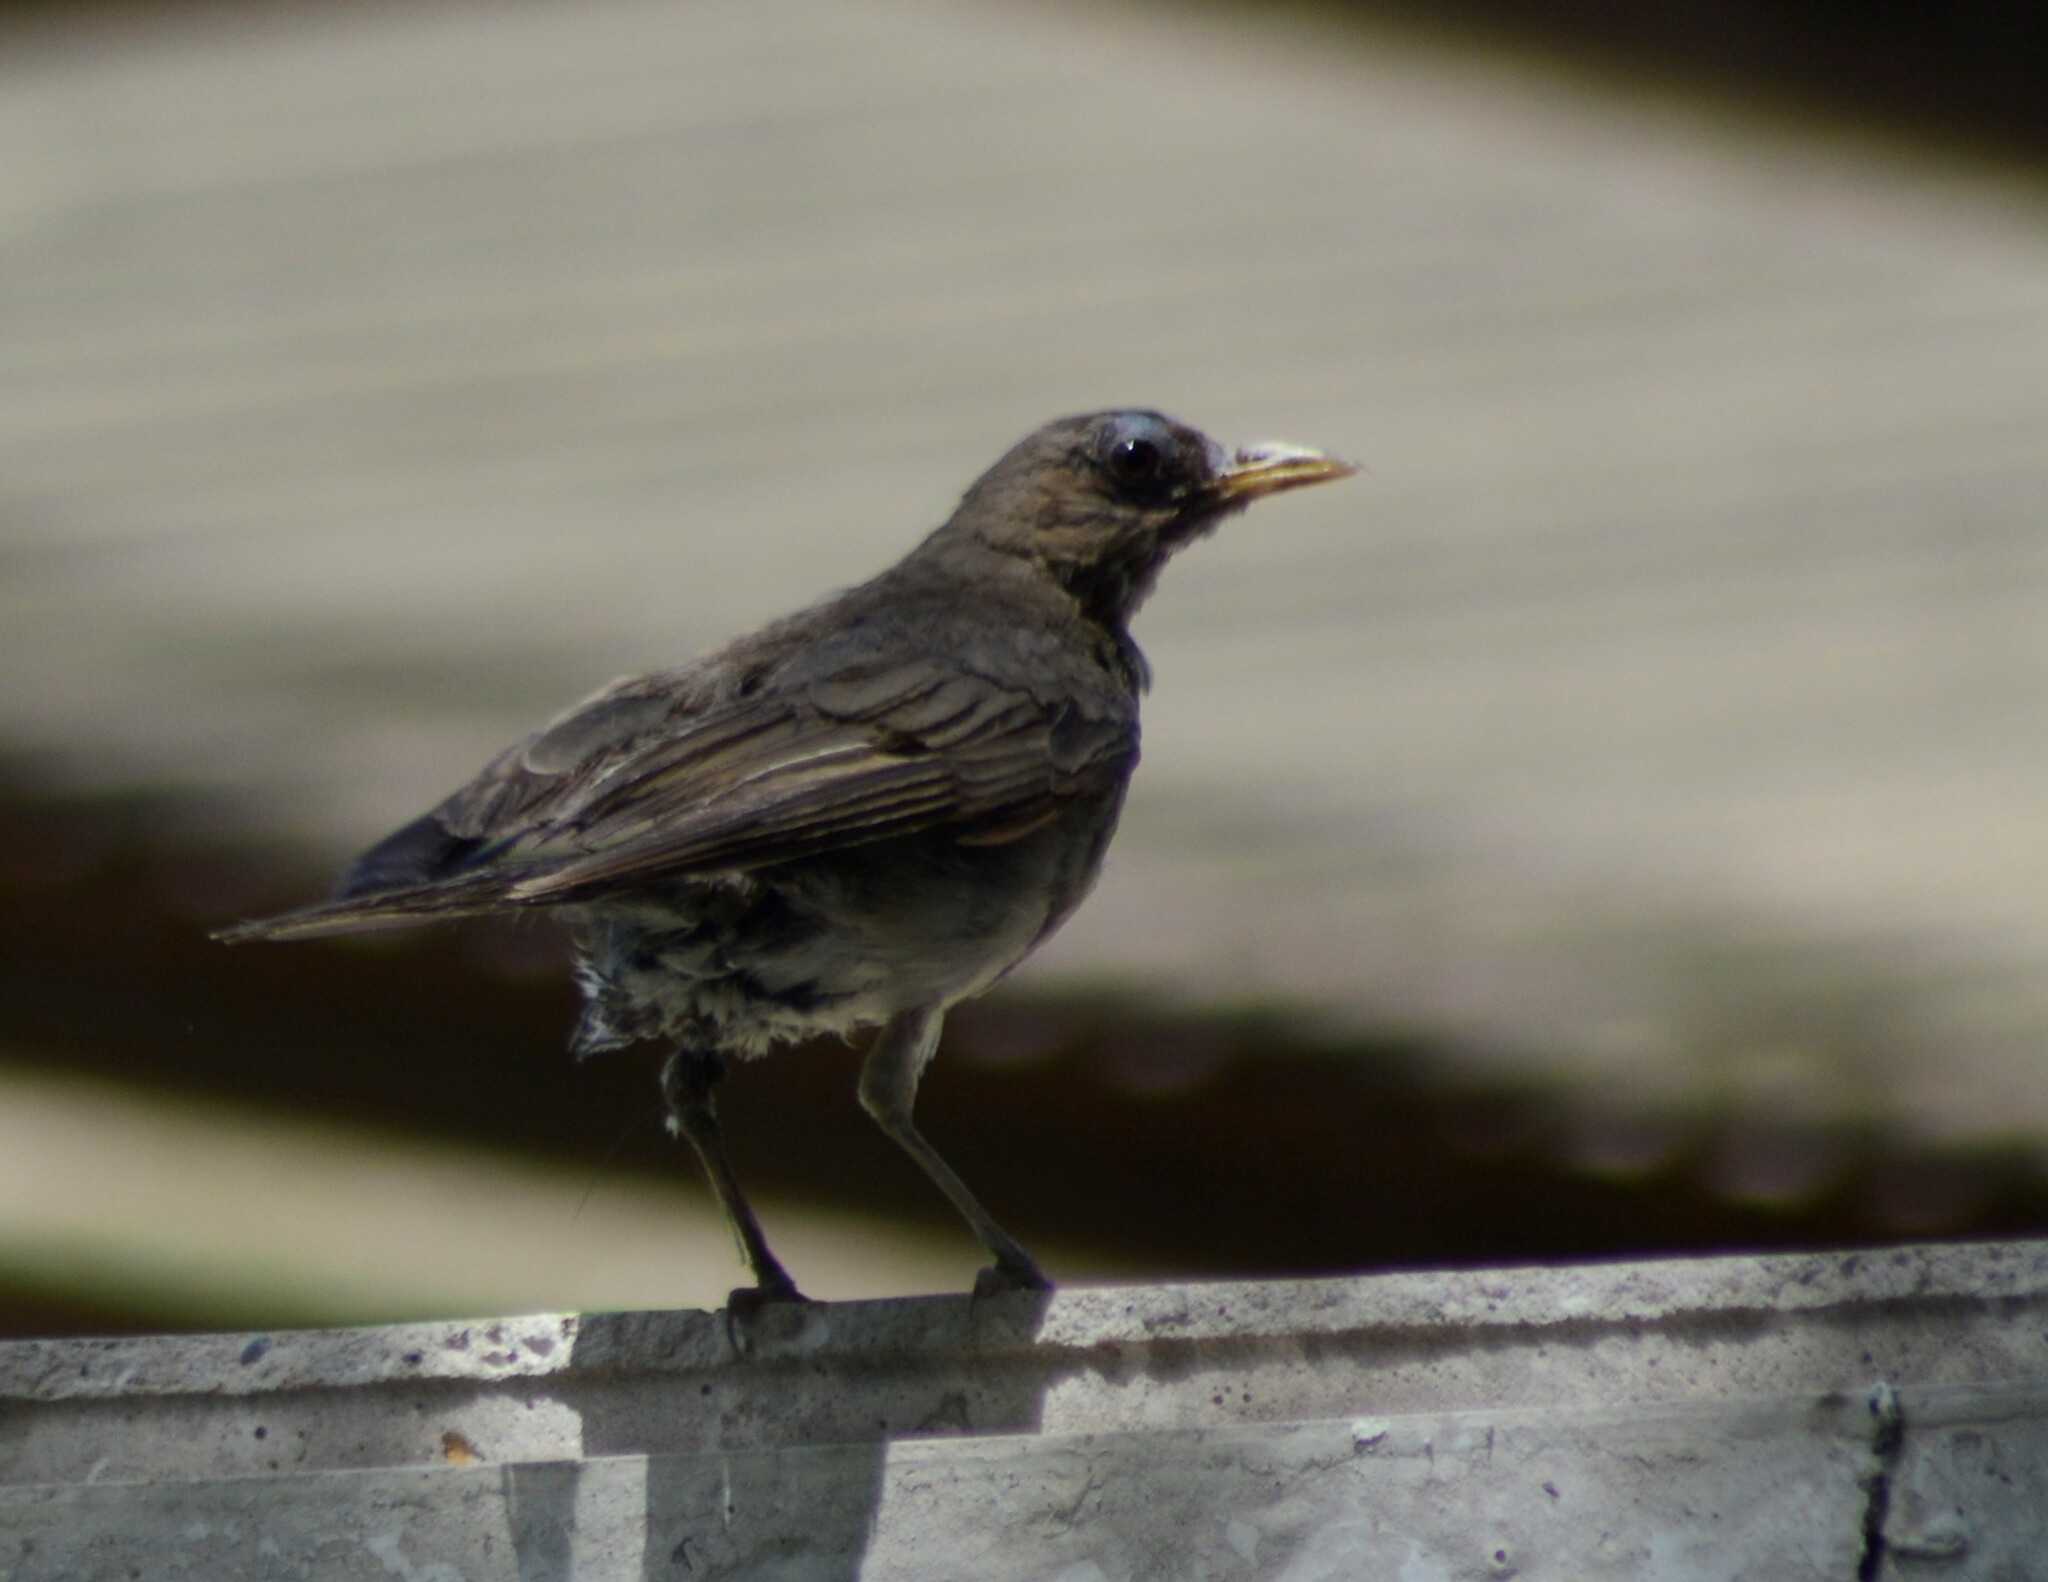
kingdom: Animalia
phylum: Chordata
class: Aves
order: Passeriformes
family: Turdidae
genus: Turdus
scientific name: Turdus amaurochalinus
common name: Creamy-bellied thrush
